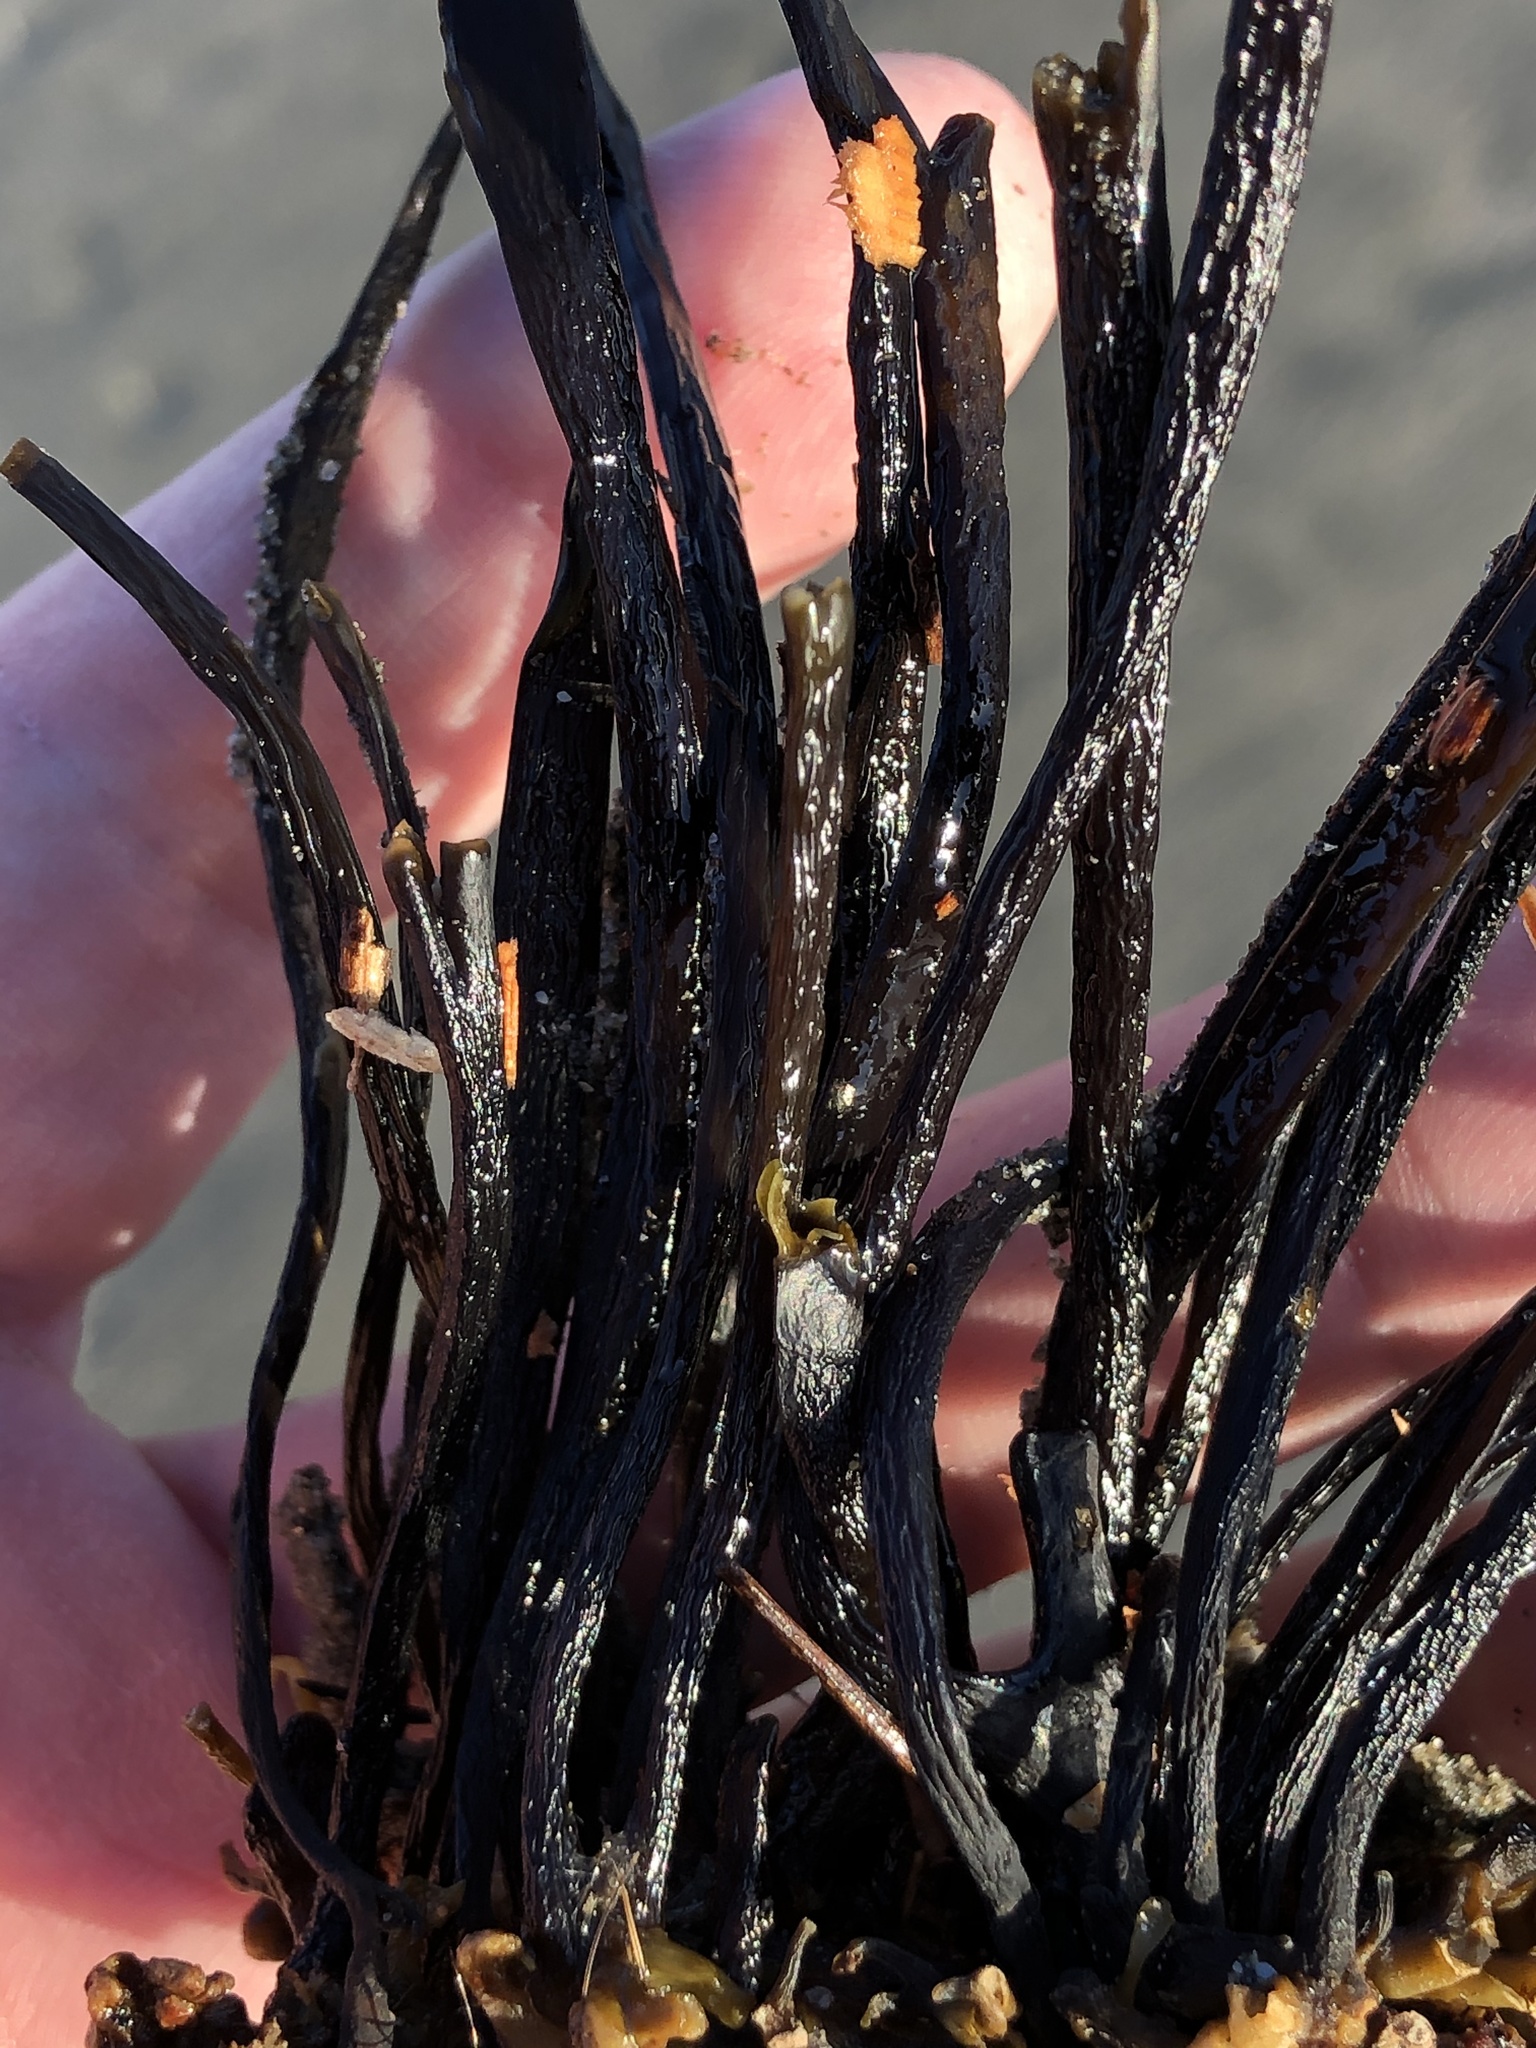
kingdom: Chromista
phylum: Ochrophyta
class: Phaeophyceae
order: Laminariales
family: Laminariaceae
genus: Laminaria
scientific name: Laminaria sinclairii
